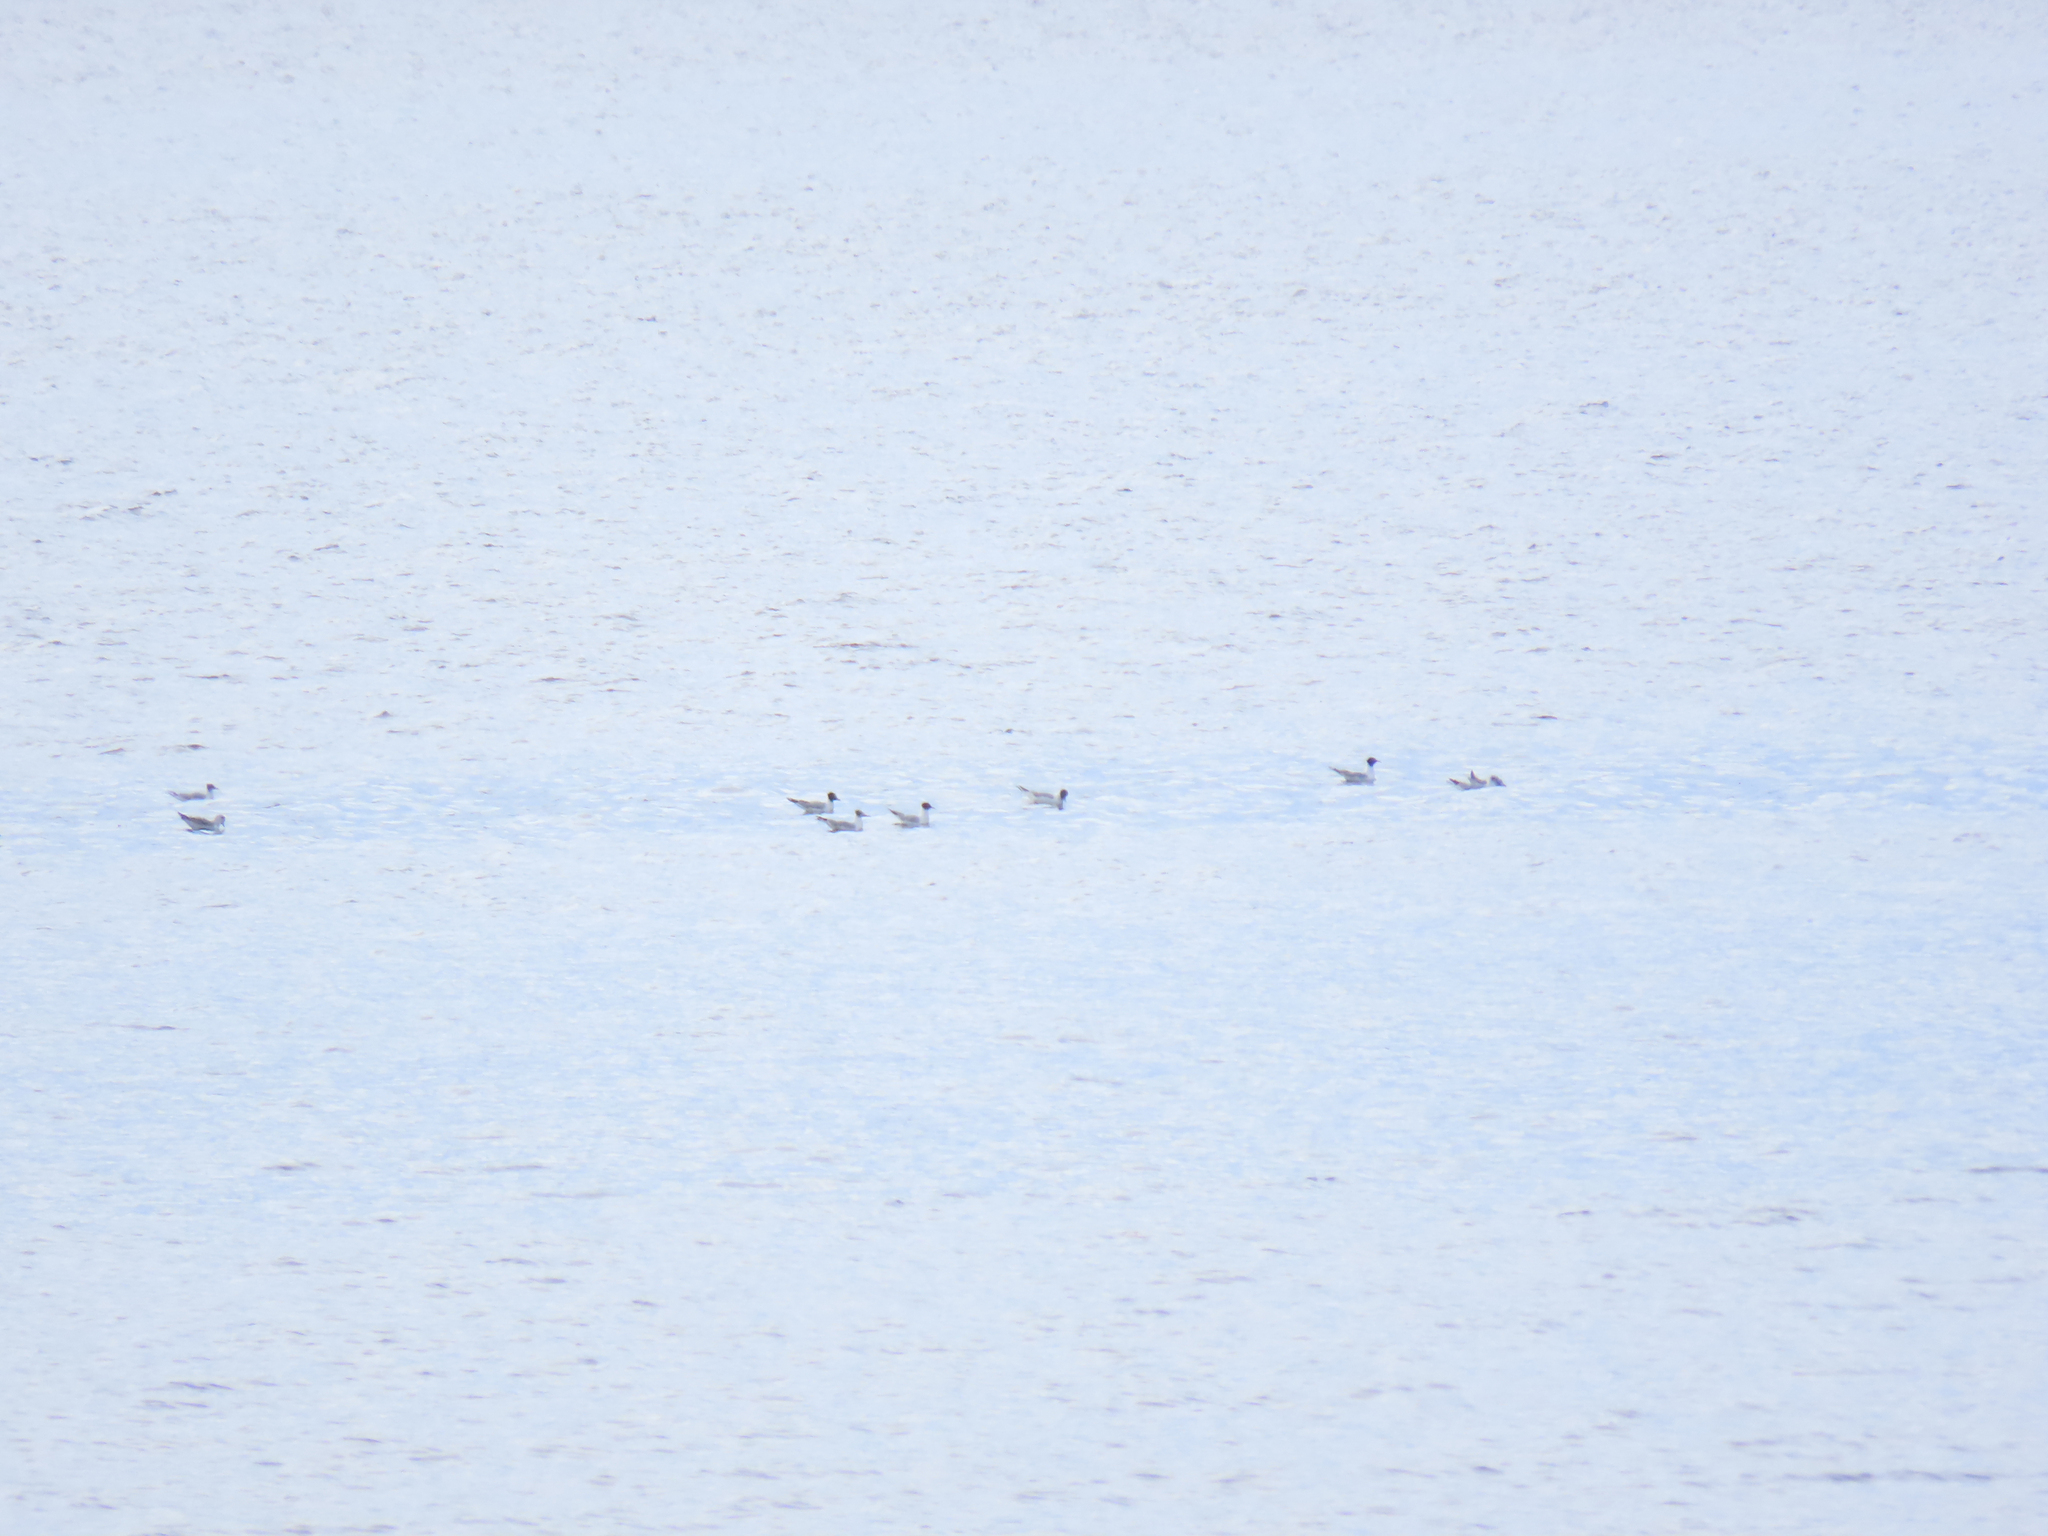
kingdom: Animalia
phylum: Chordata
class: Aves
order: Charadriiformes
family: Laridae
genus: Chroicocephalus
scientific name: Chroicocephalus philadelphia
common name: Bonaparte's gull
